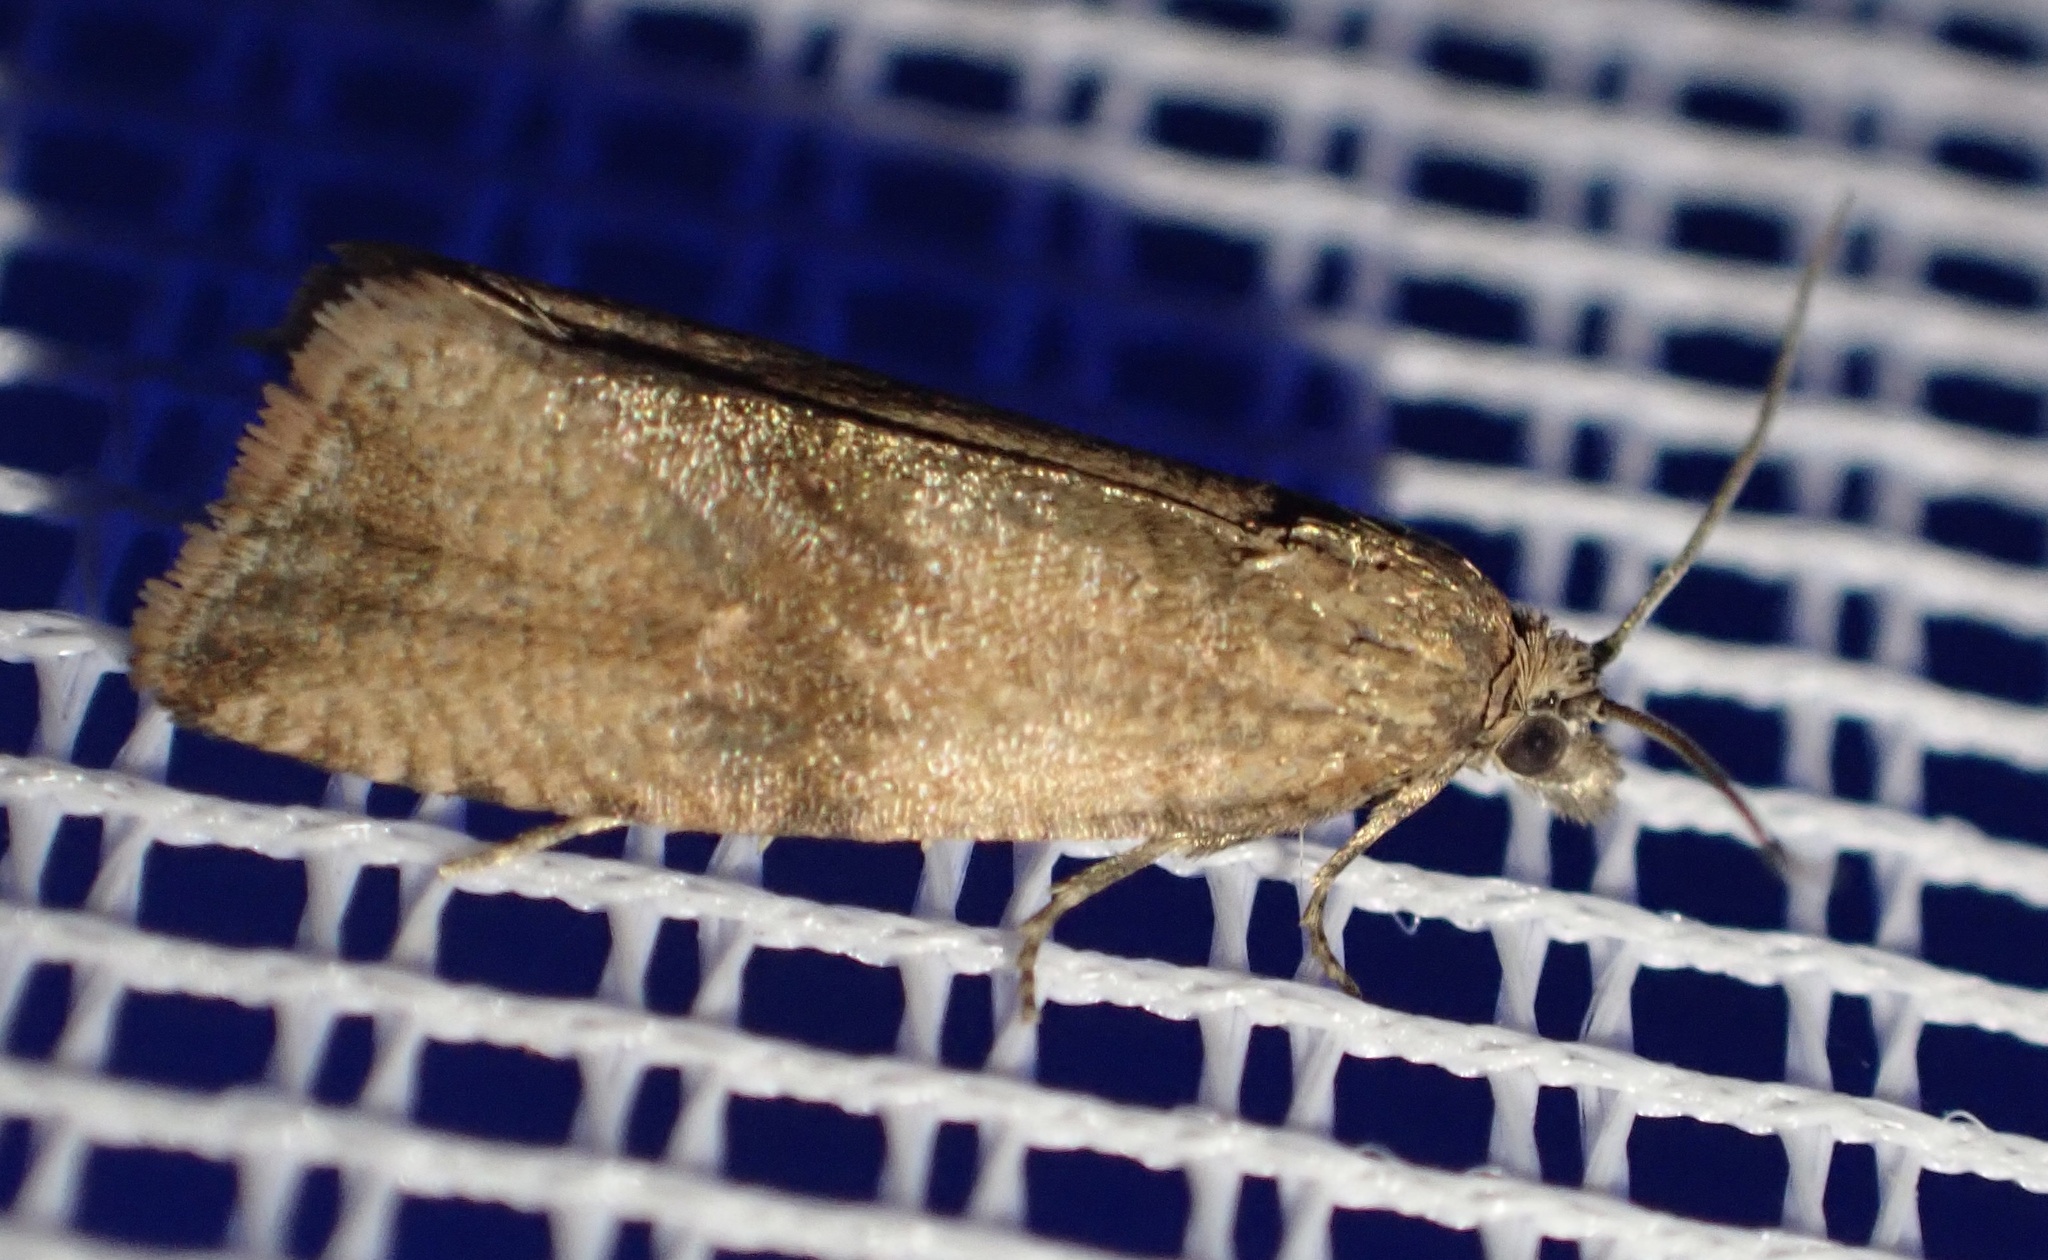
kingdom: Animalia
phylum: Arthropoda
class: Insecta
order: Lepidoptera
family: Tortricidae
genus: Celypha
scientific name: Celypha striana
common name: Barred marble
